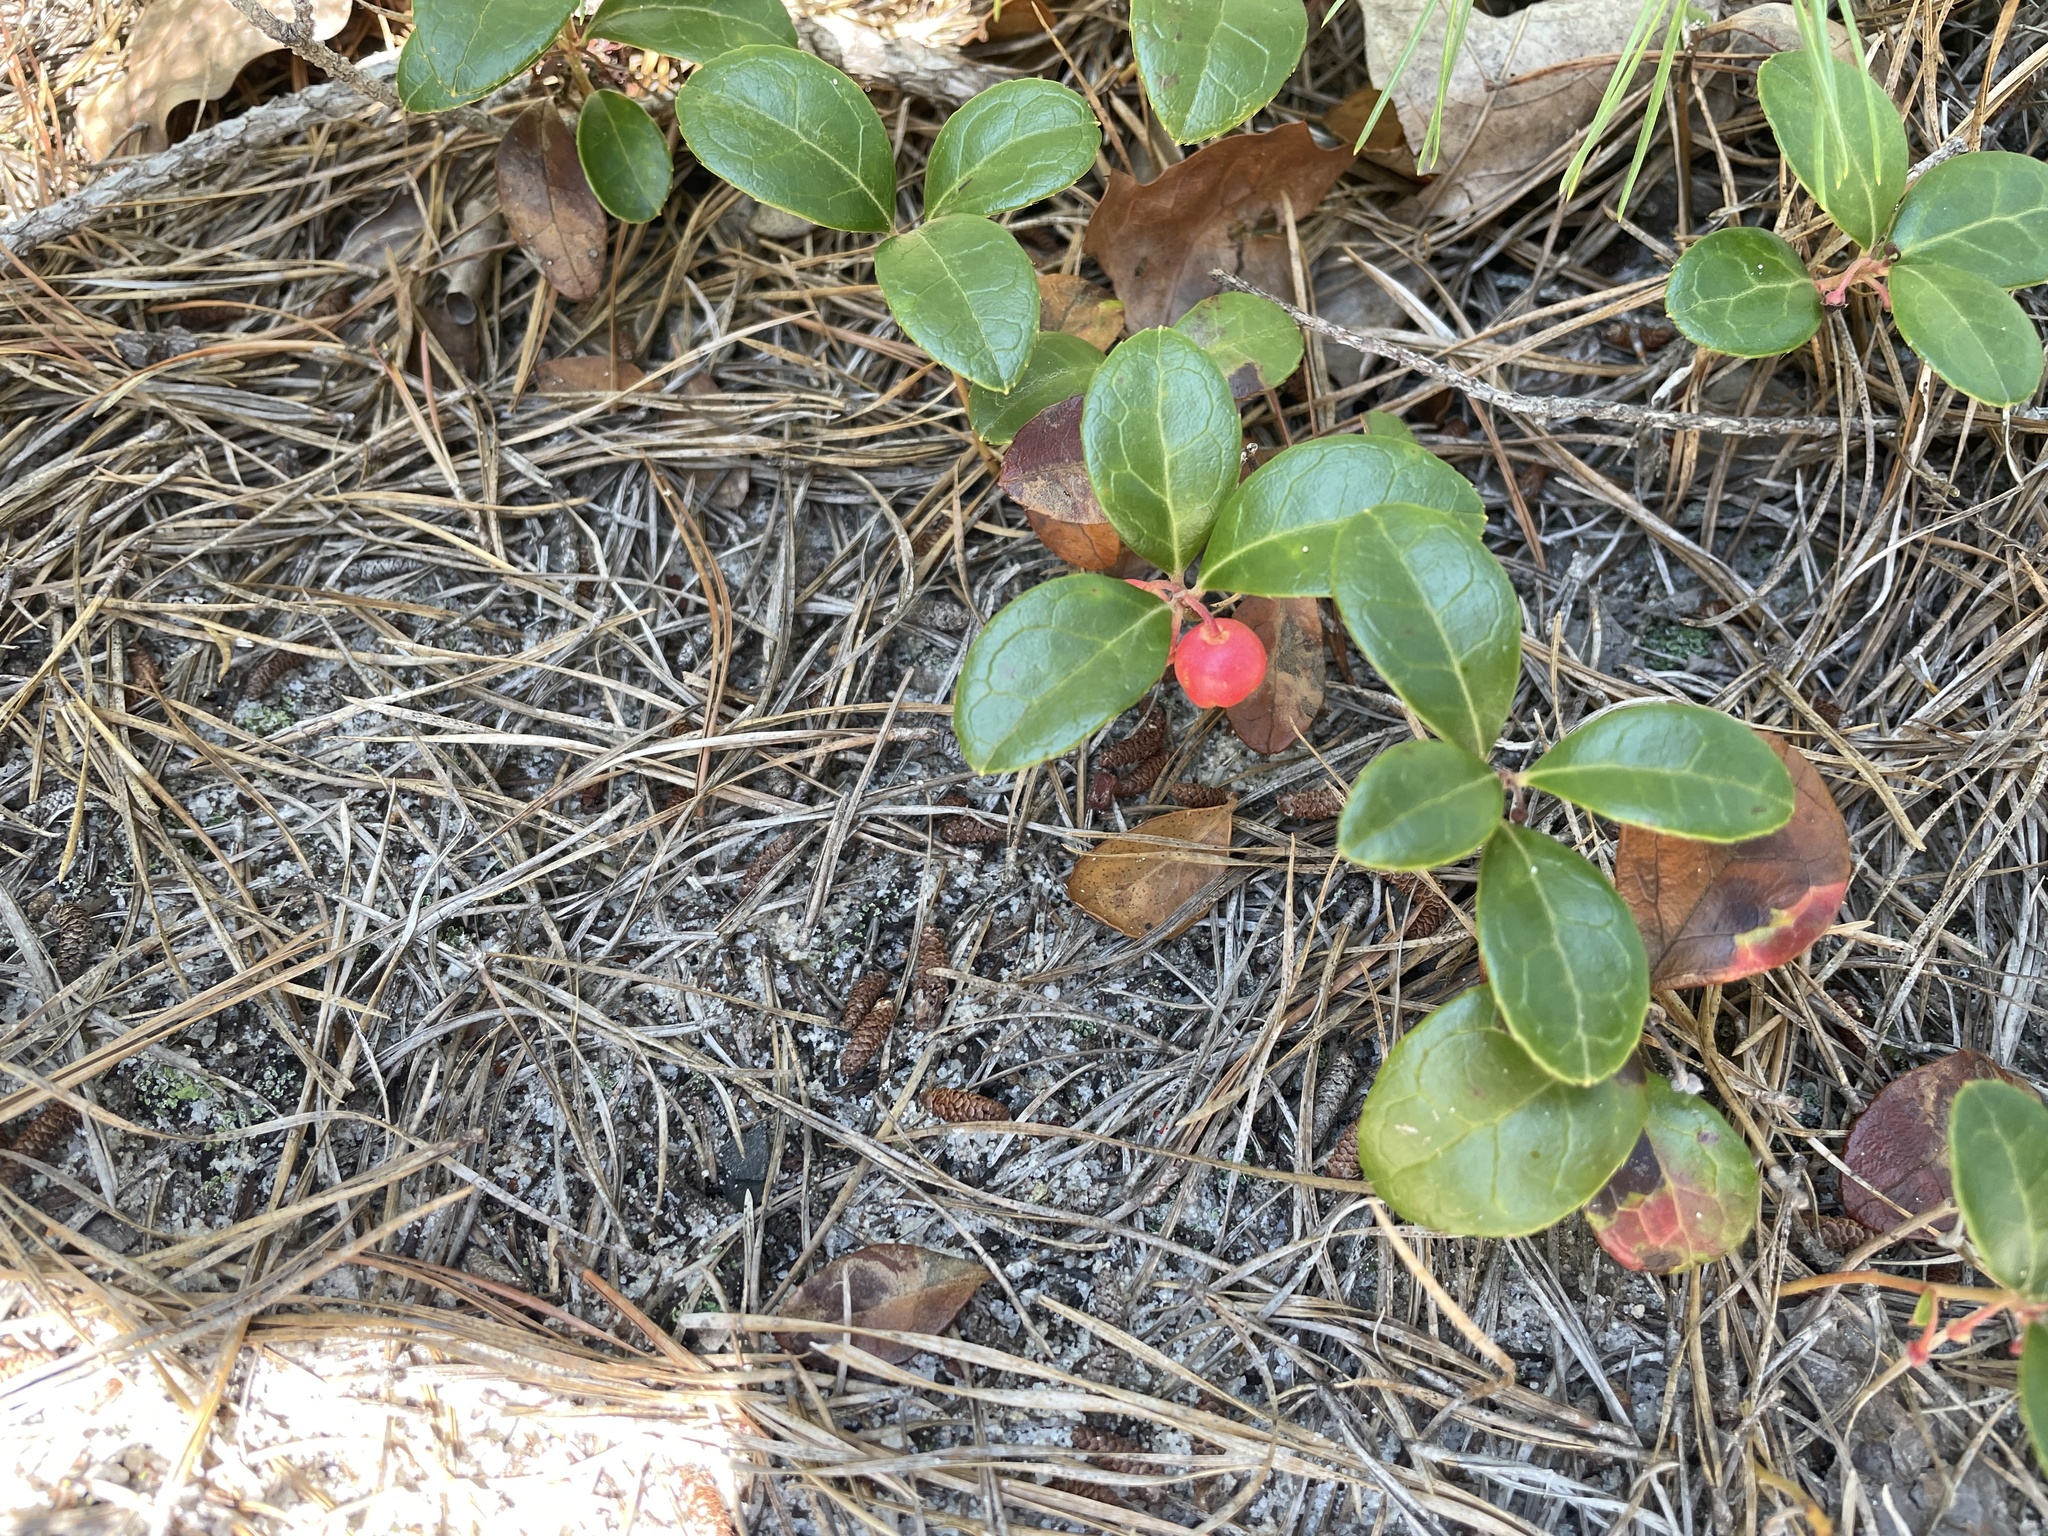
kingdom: Plantae
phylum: Tracheophyta
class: Magnoliopsida
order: Ericales
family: Ericaceae
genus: Gaultheria
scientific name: Gaultheria procumbens
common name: Checkerberry
